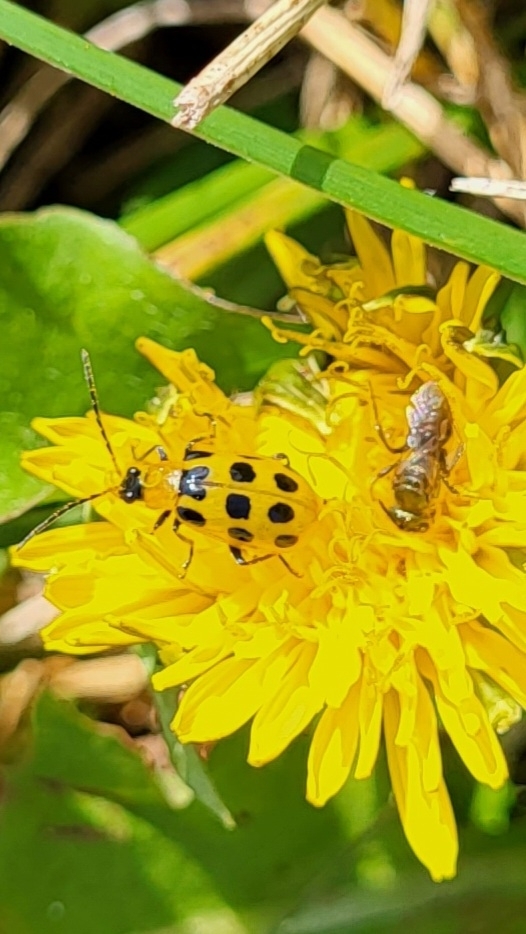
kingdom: Animalia
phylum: Arthropoda
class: Insecta
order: Coleoptera
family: Chrysomelidae
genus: Diabrotica
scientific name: Diabrotica undecimpunctata
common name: Spotted cucumber beetle
